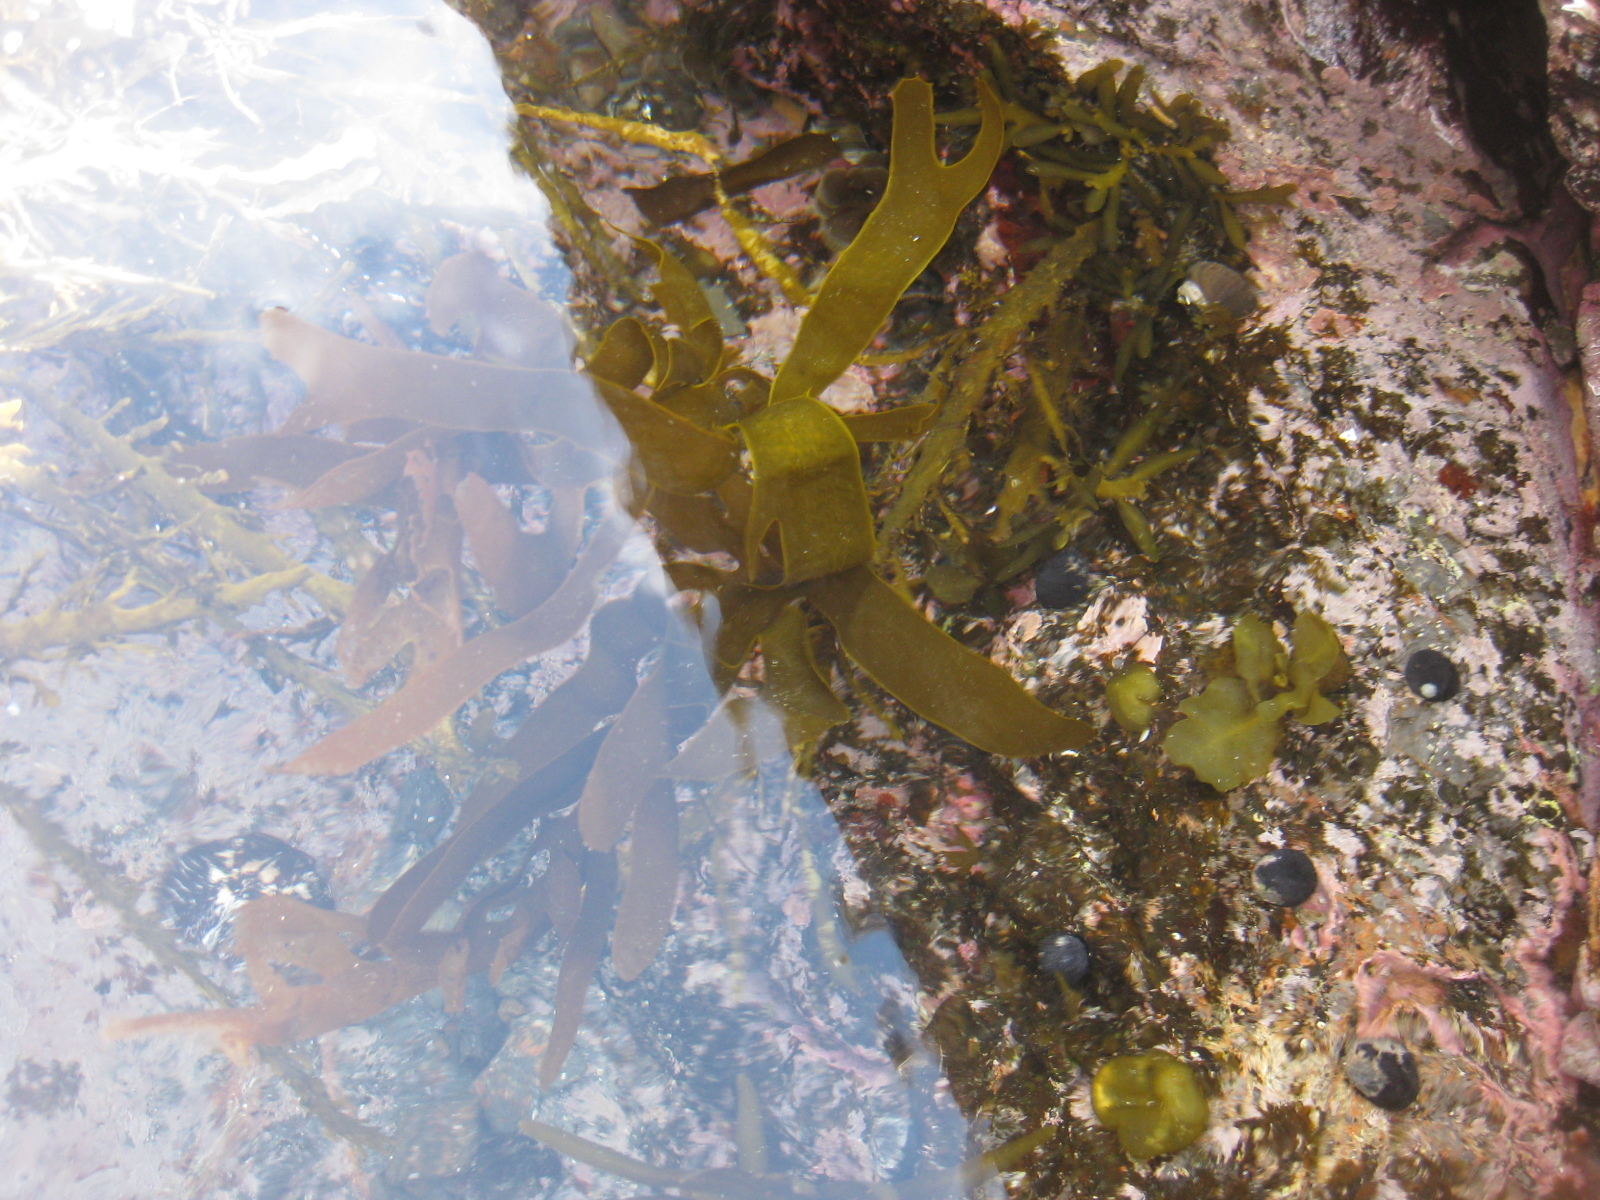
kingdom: Chromista
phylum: Ochrophyta
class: Phaeophyceae
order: Laminariales
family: Lessoniaceae
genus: Ecklonia
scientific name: Ecklonia radiata
